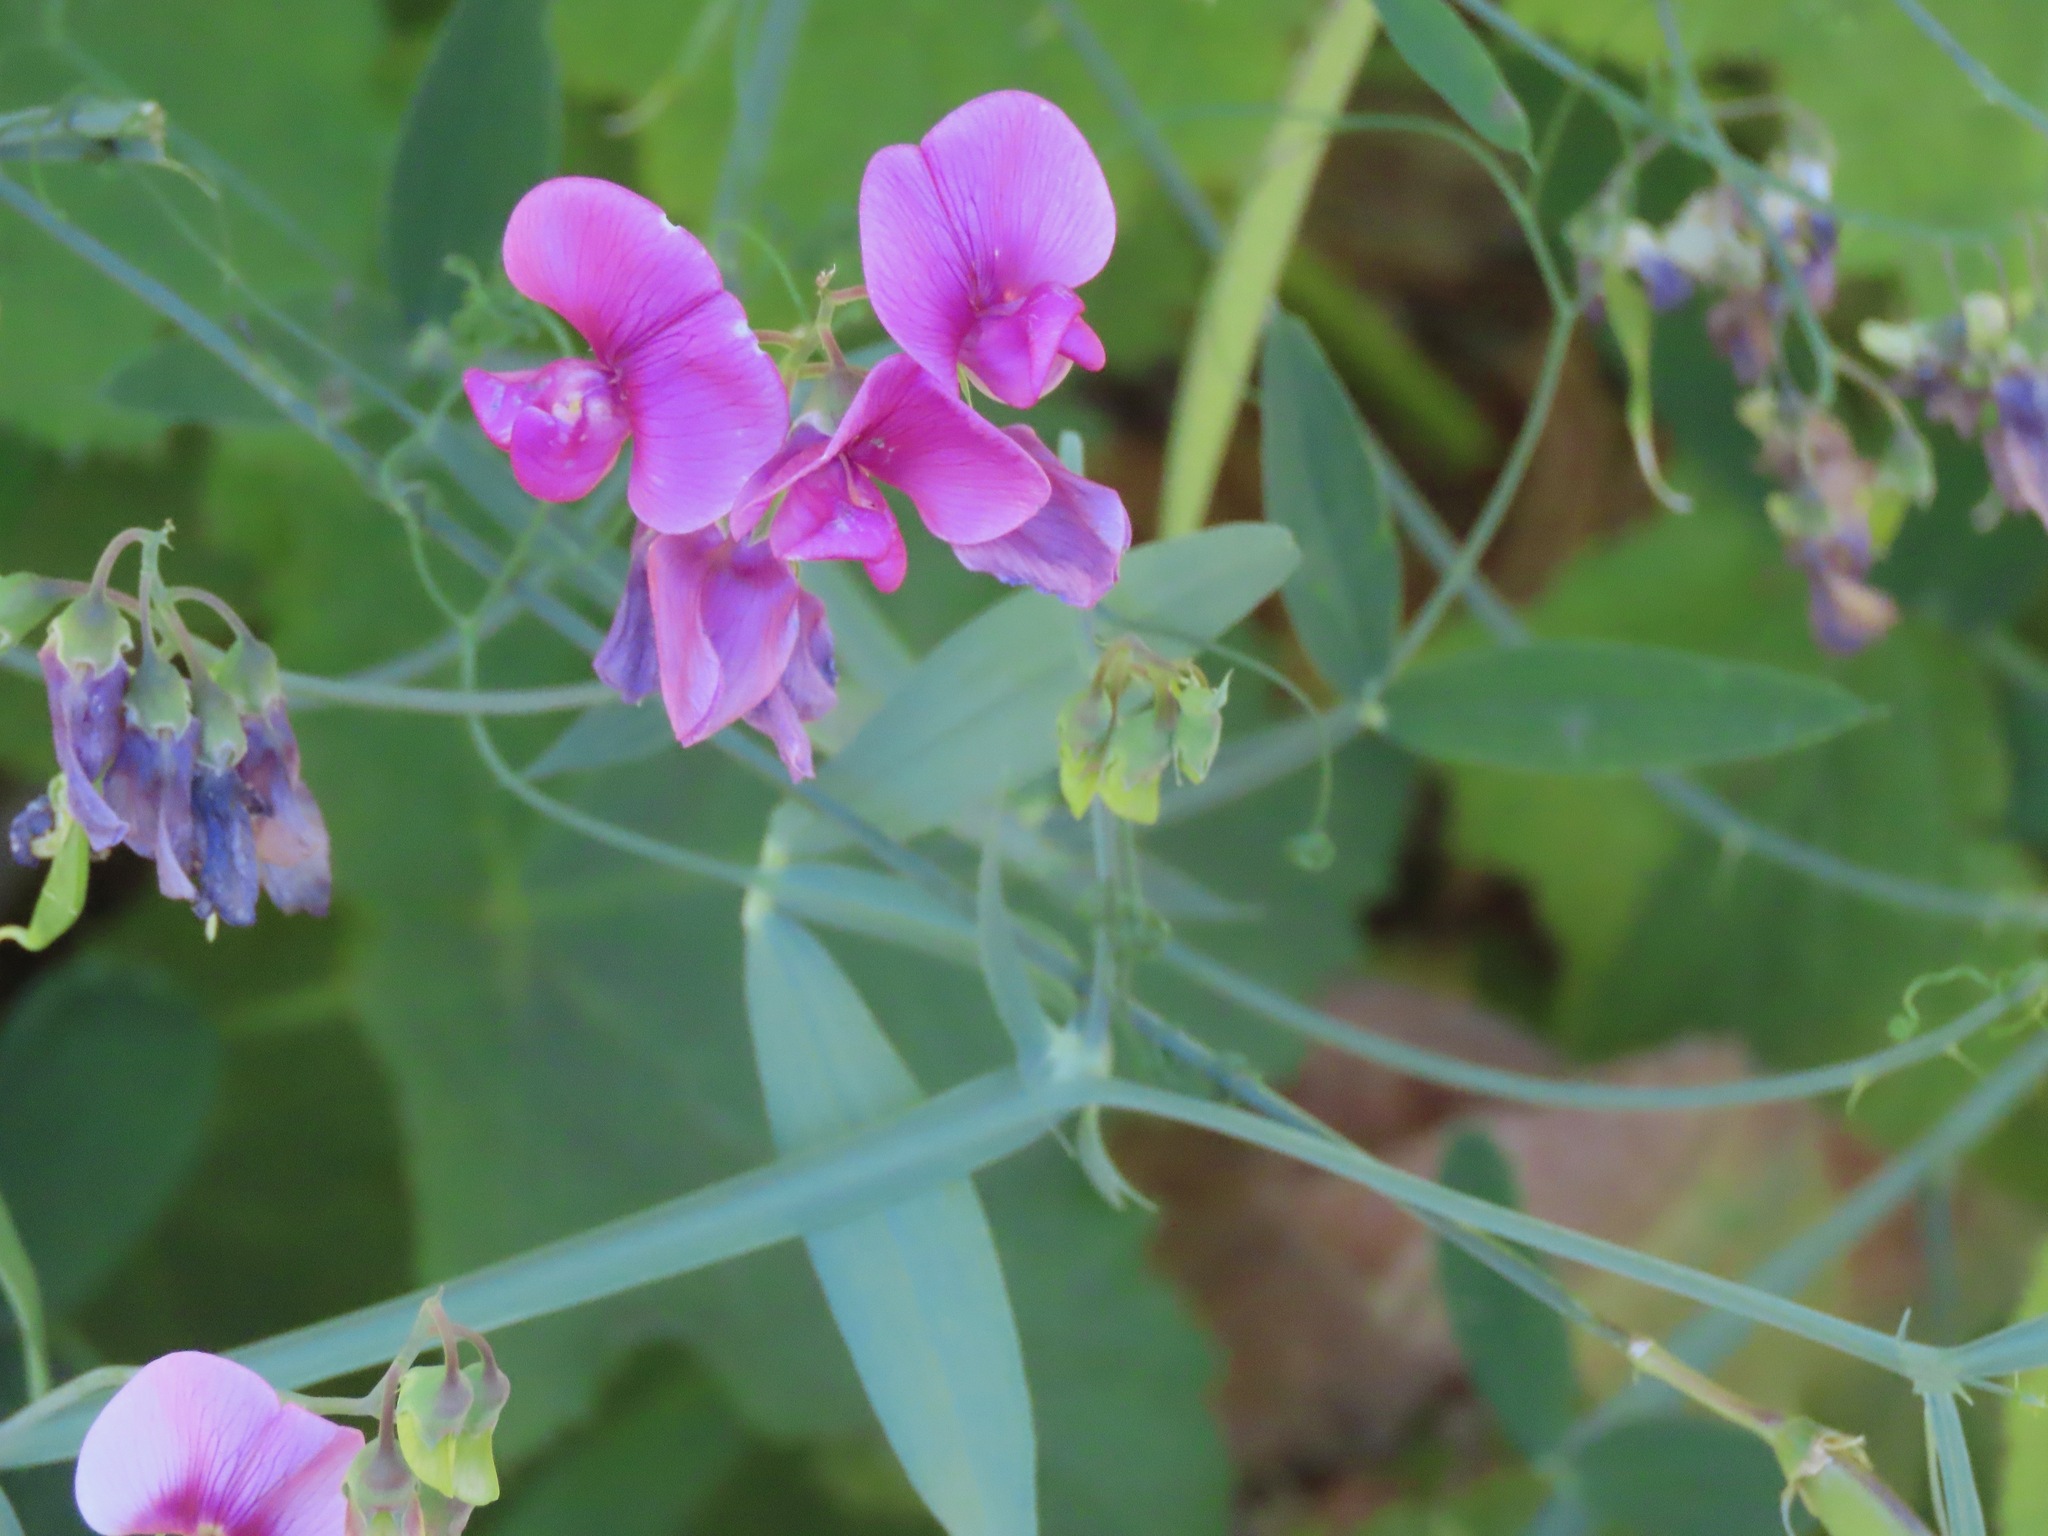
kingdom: Plantae
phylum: Tracheophyta
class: Magnoliopsida
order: Fabales
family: Fabaceae
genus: Lathyrus
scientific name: Lathyrus latifolius
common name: Perennial pea
